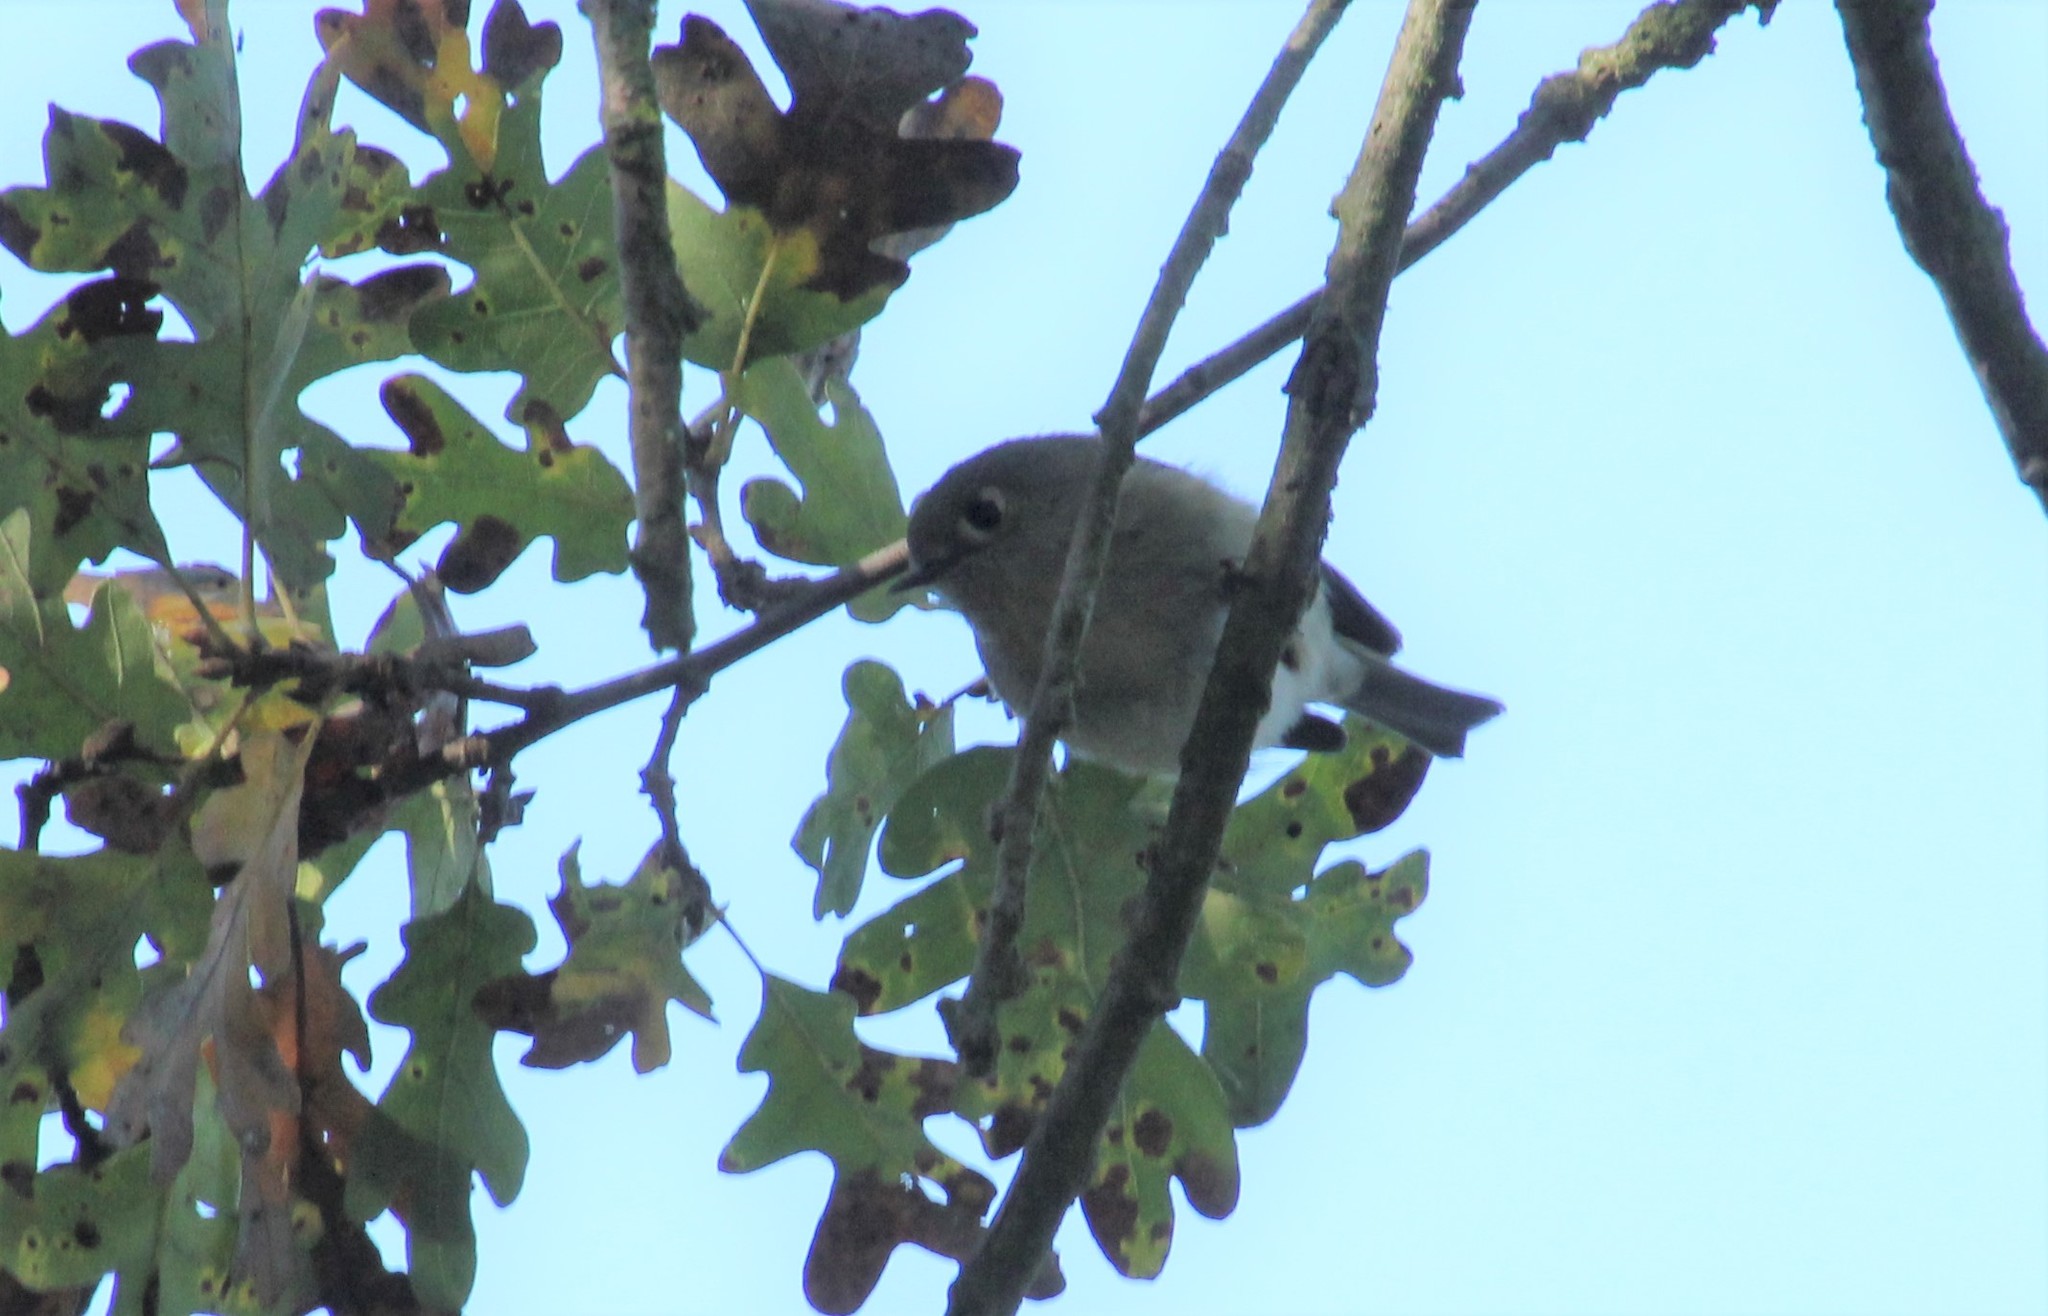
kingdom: Animalia
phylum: Chordata
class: Aves
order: Passeriformes
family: Regulidae
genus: Regulus
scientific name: Regulus calendula
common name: Ruby-crowned kinglet
